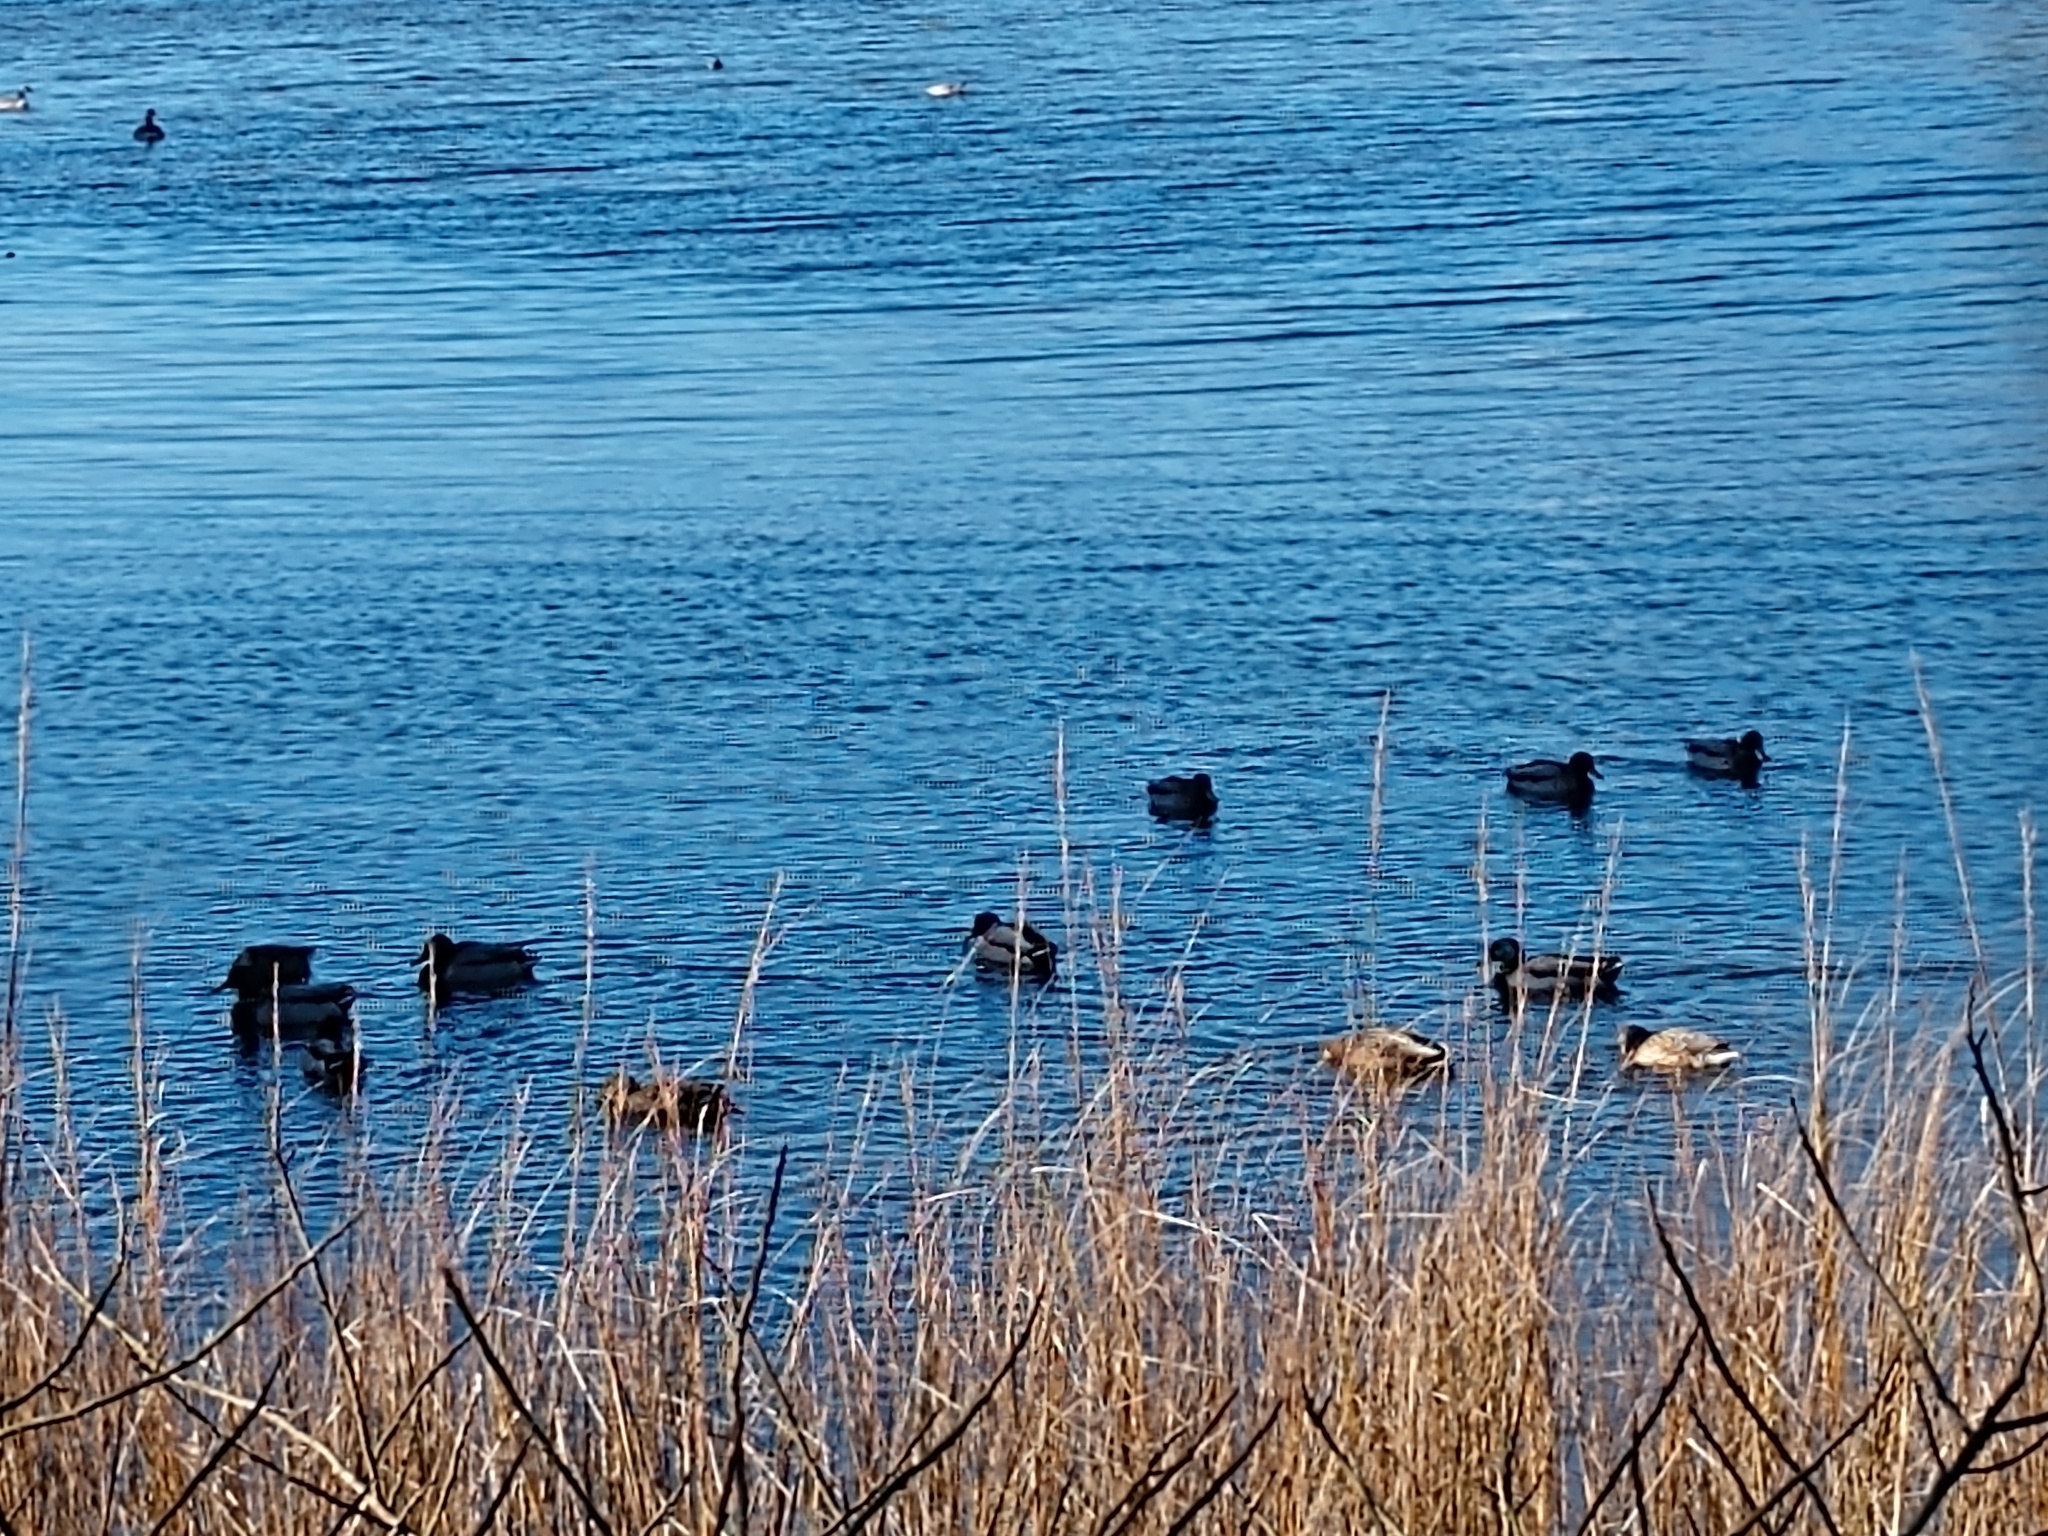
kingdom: Animalia
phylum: Chordata
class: Aves
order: Anseriformes
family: Anatidae
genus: Anas
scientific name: Anas platyrhynchos
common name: Mallard
